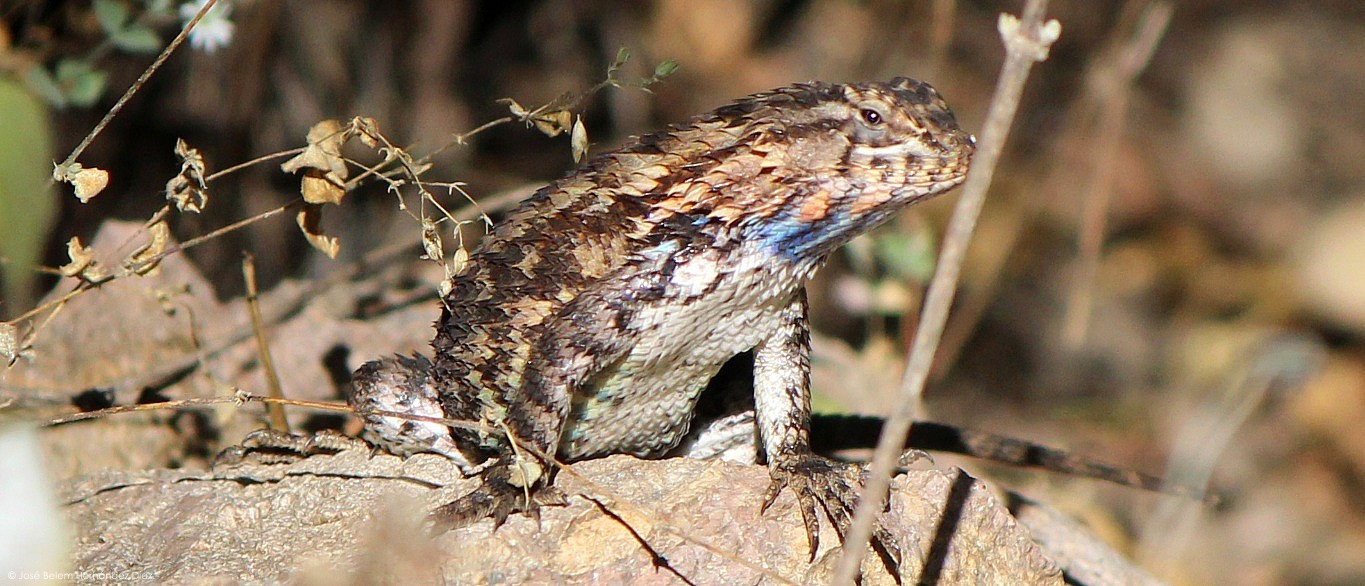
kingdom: Animalia
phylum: Chordata
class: Squamata
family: Phrynosomatidae
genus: Sceloporus
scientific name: Sceloporus spinosus
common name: Blue-spotted spiny lizard [caeruleopunctatus]
